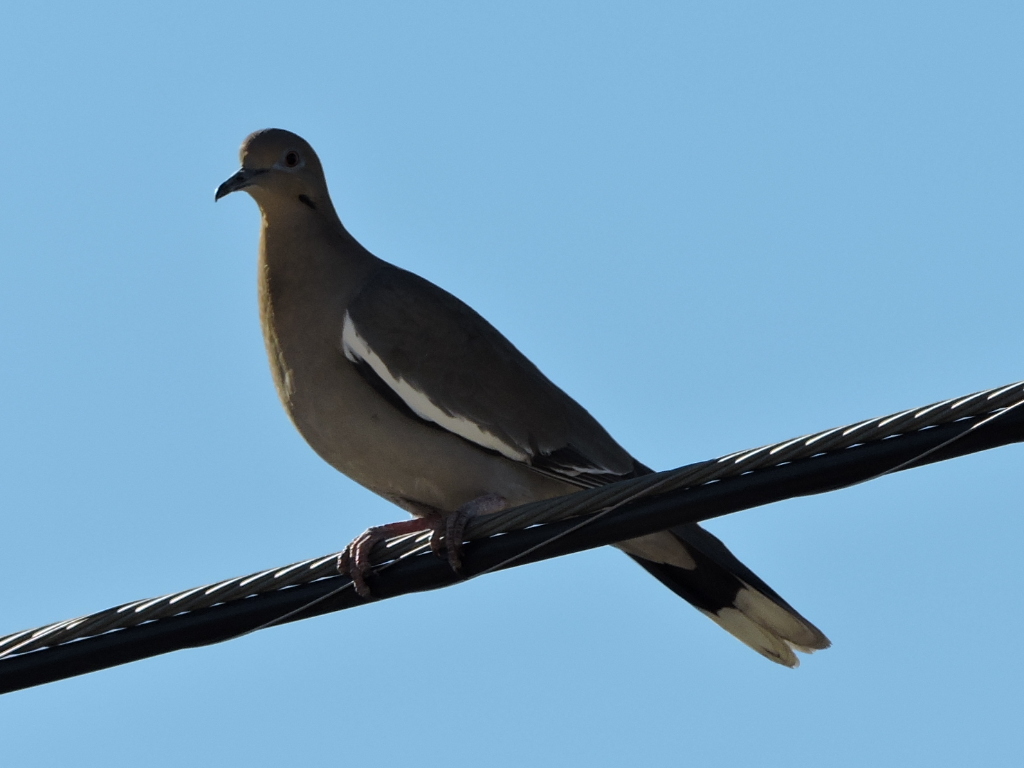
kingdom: Animalia
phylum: Chordata
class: Aves
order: Columbiformes
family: Columbidae
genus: Zenaida
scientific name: Zenaida asiatica
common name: White-winged dove
